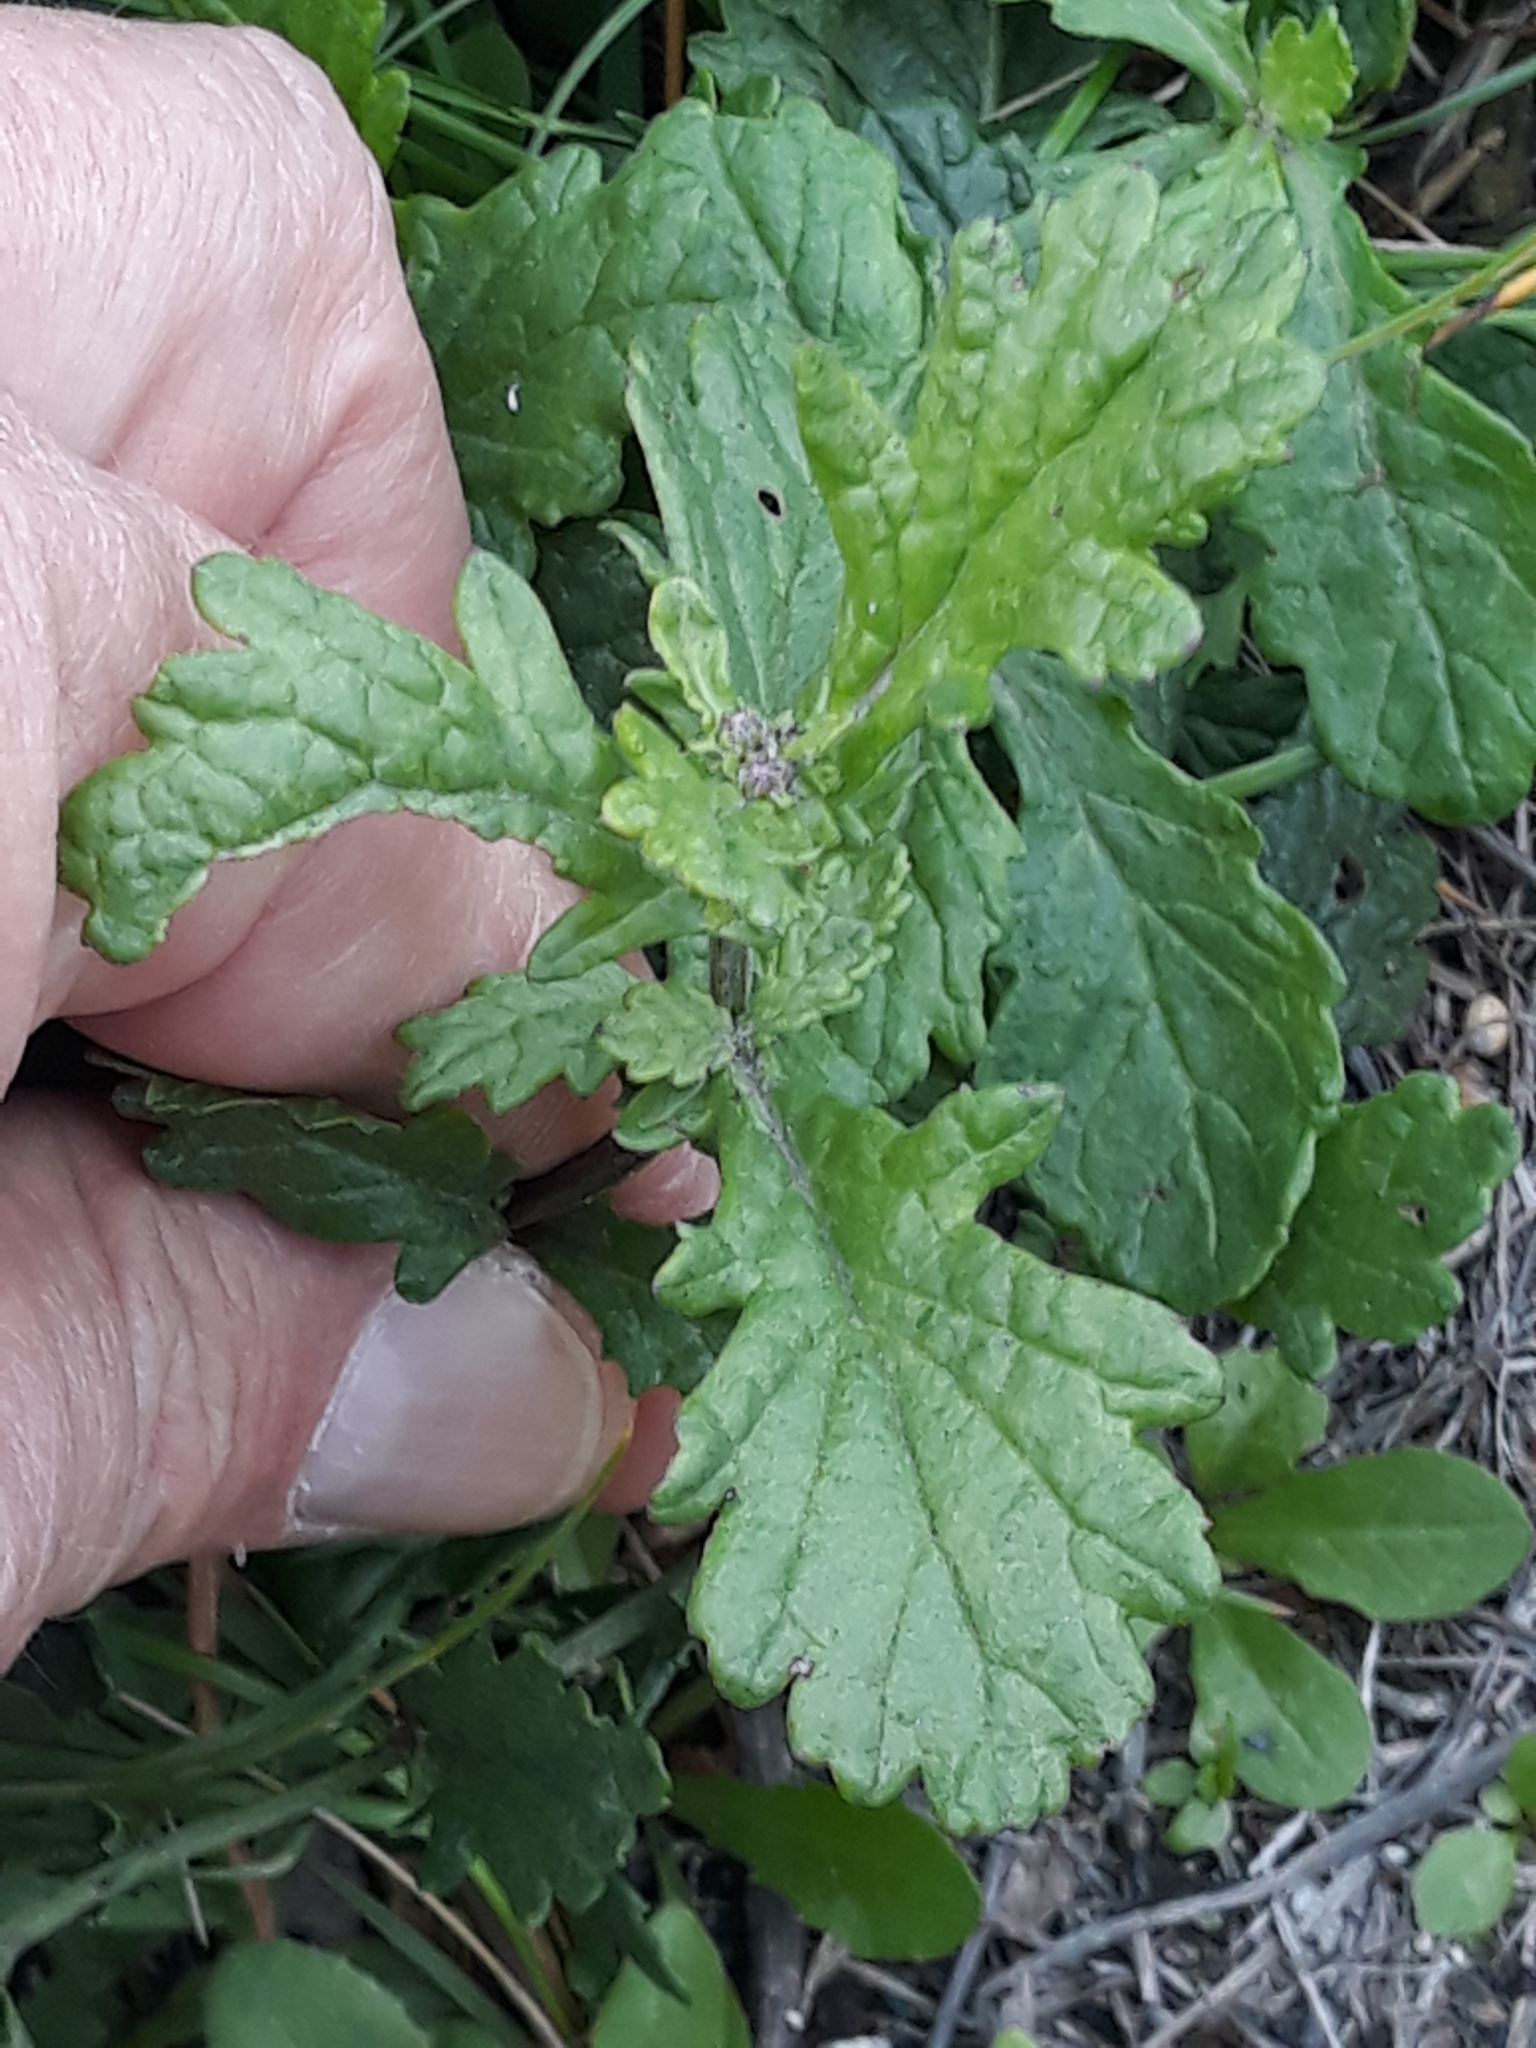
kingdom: Plantae
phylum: Tracheophyta
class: Magnoliopsida
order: Asterales
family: Asteraceae
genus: Jacobaea
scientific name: Jacobaea vulgaris
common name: Stinking willie
